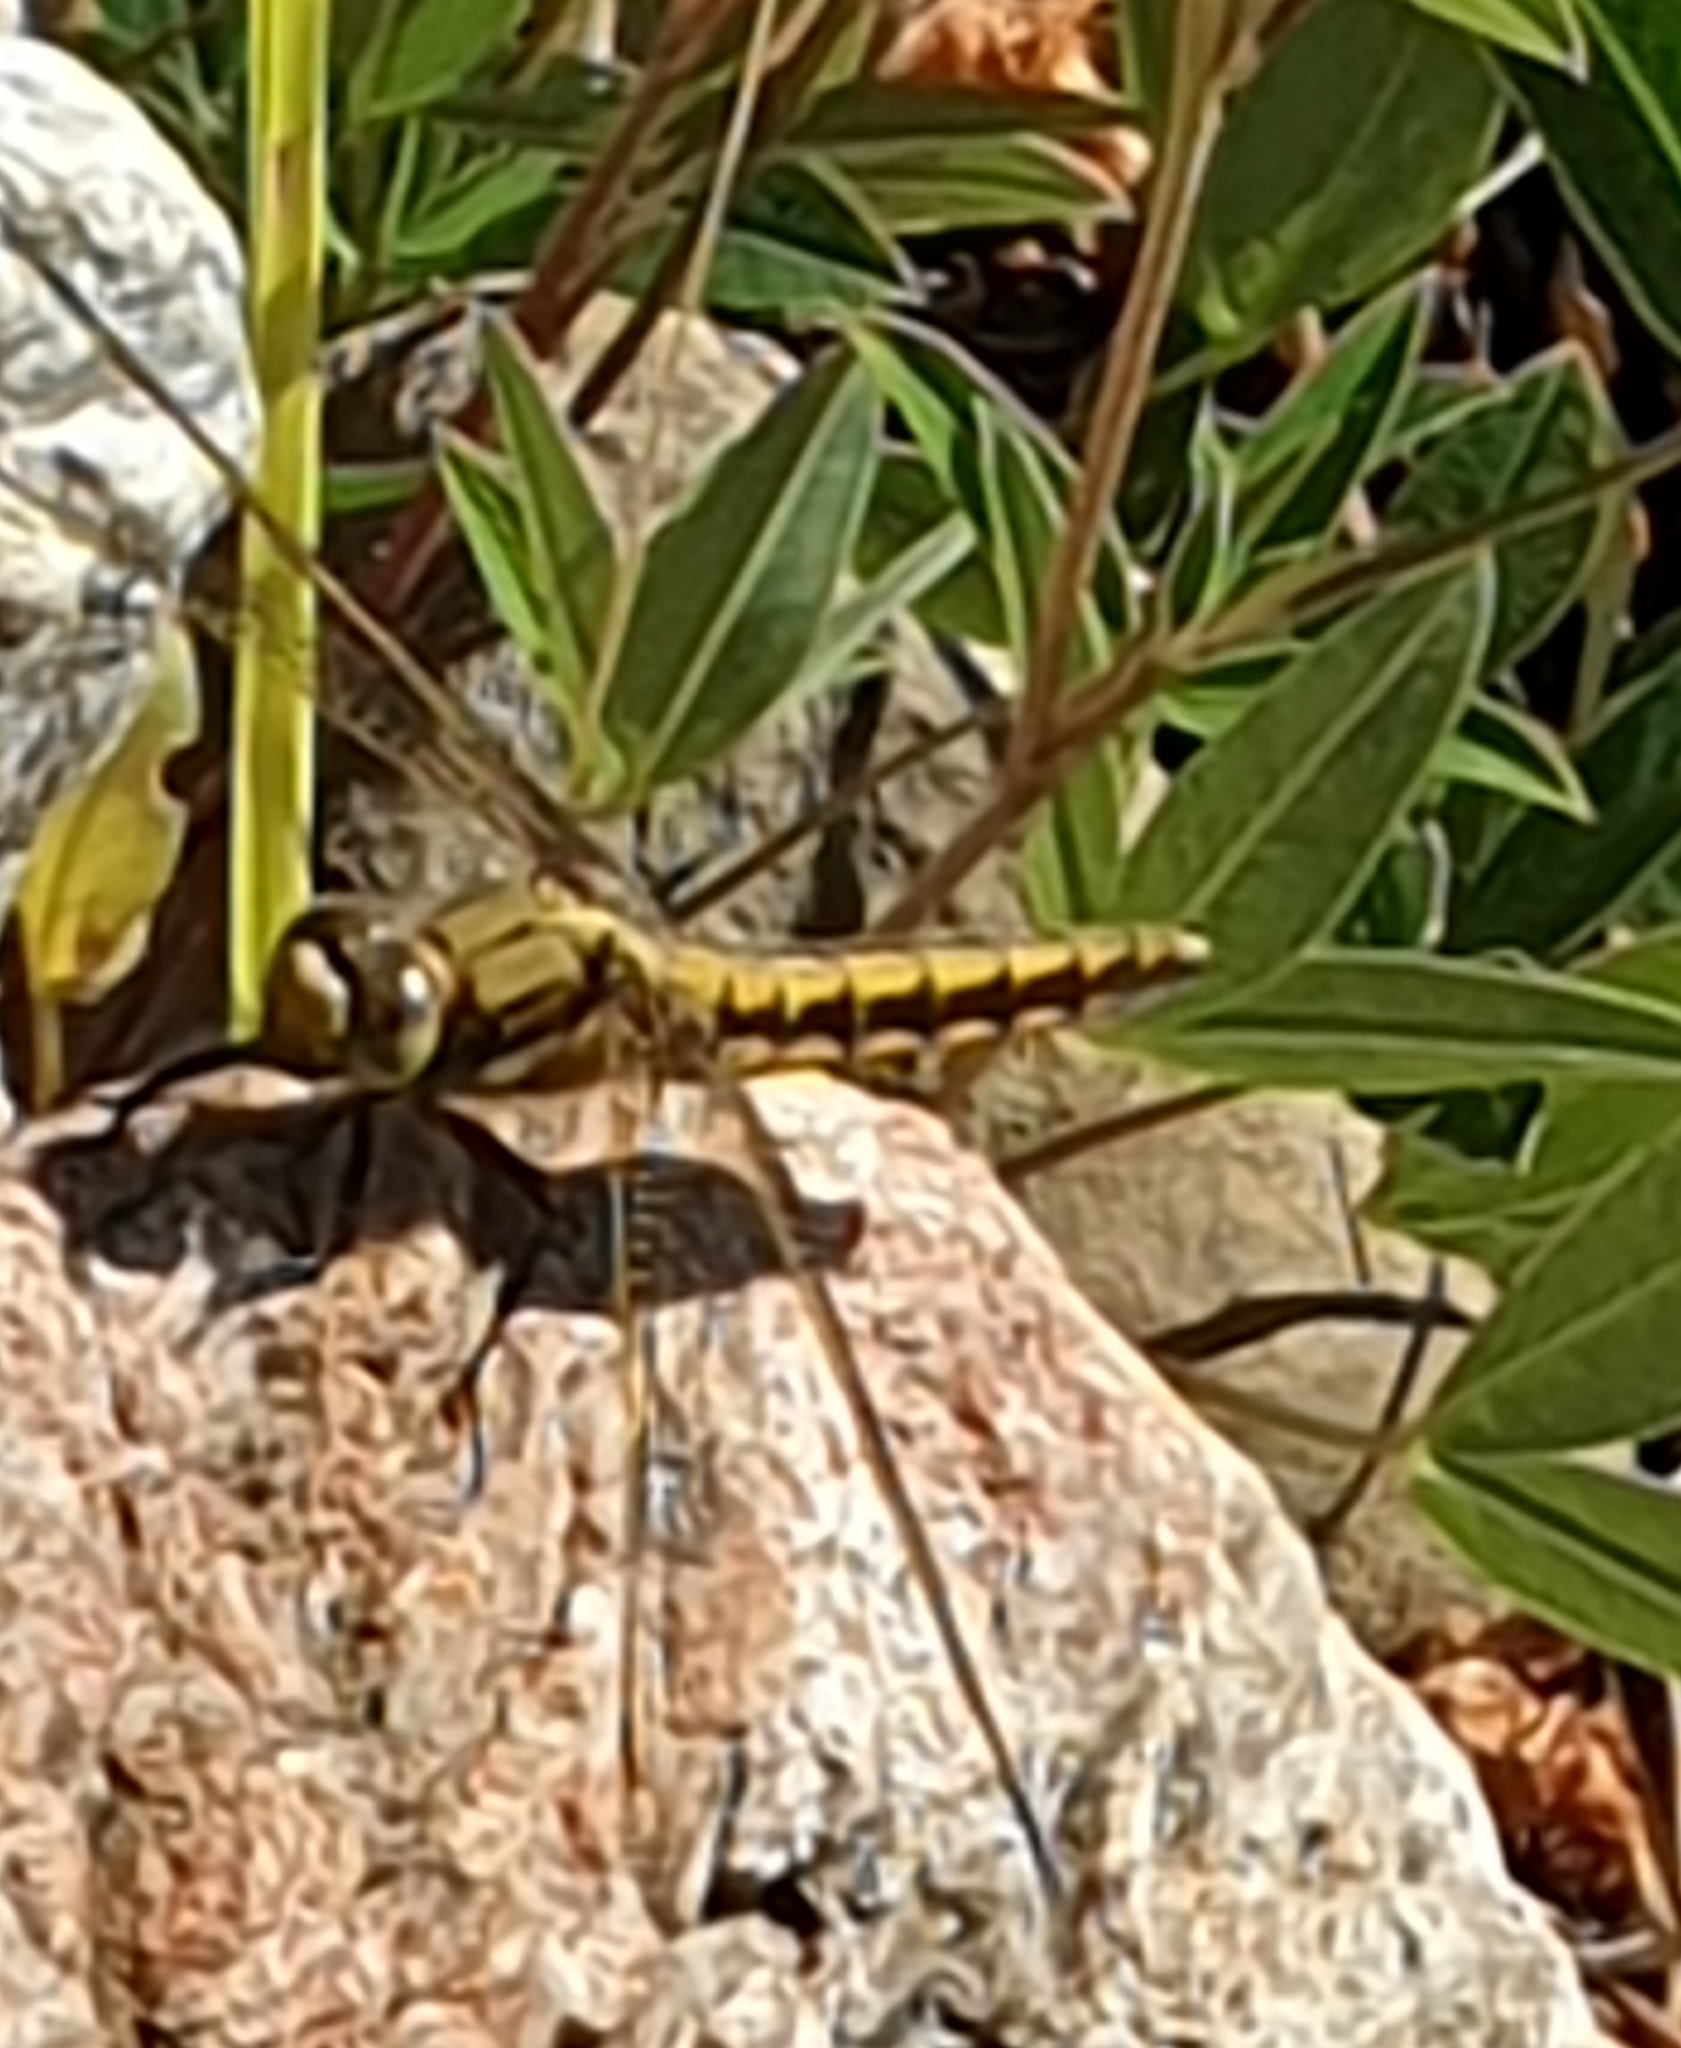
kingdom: Animalia
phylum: Arthropoda
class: Insecta
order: Odonata
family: Libellulidae
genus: Orthetrum
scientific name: Orthetrum cancellatum
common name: Black-tailed skimmer
